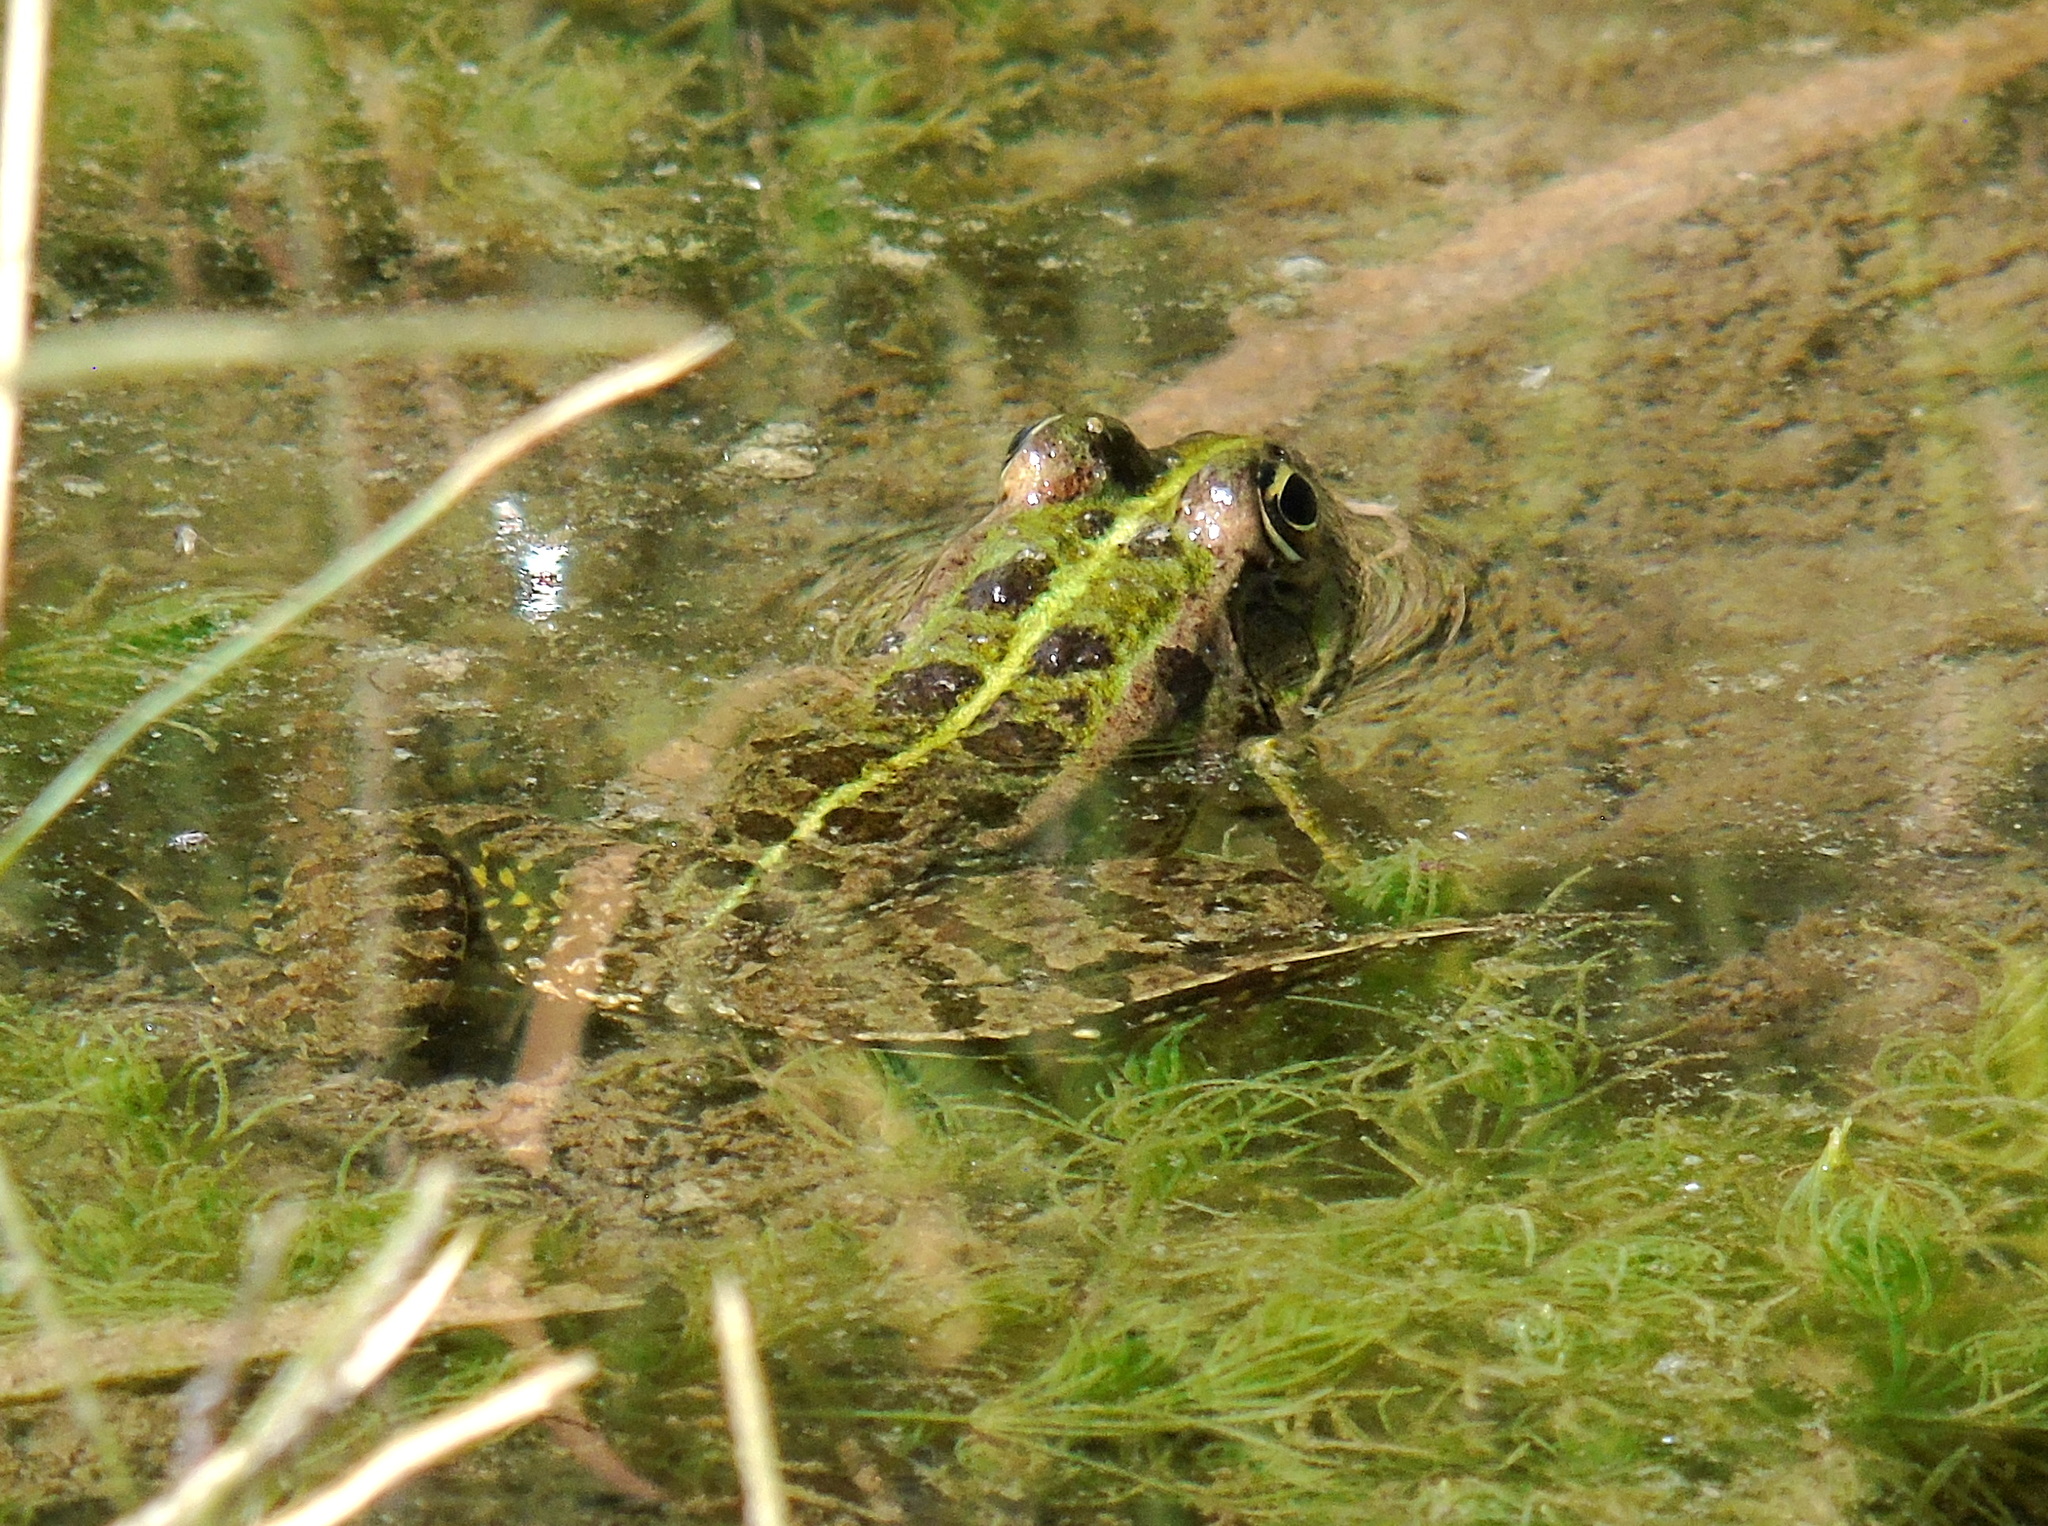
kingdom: Animalia
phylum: Chordata
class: Amphibia
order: Anura
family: Ranidae
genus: Pelophylax
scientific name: Pelophylax ridibundus
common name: Marsh frog
